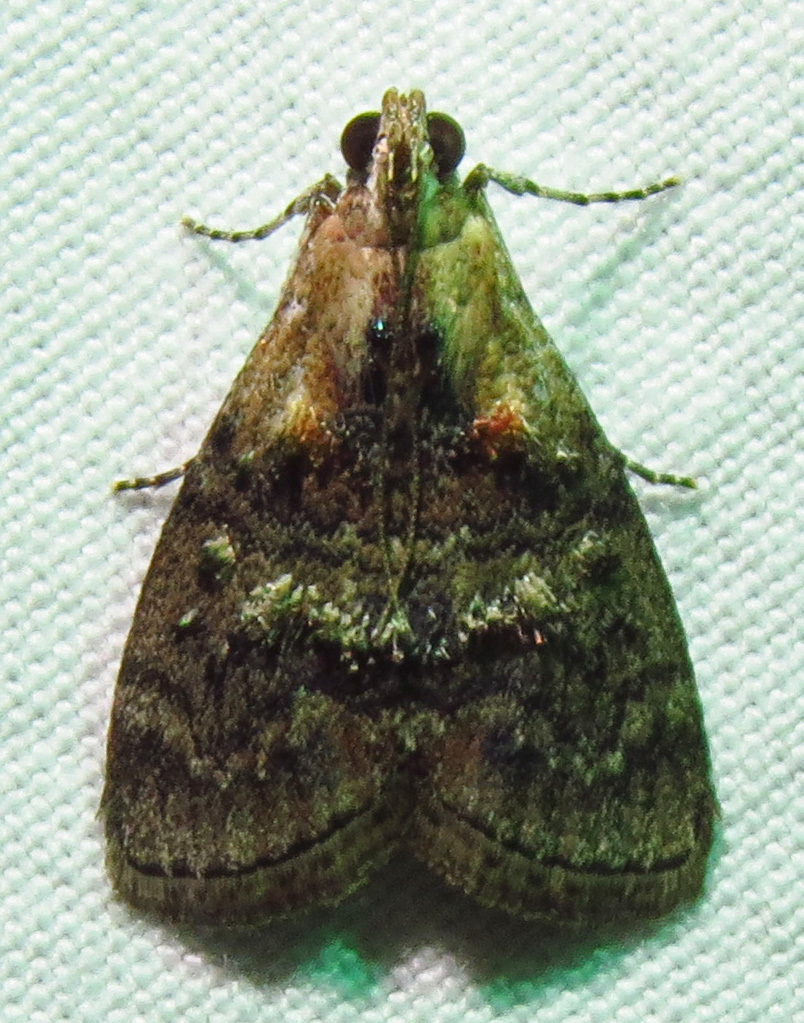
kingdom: Animalia
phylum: Arthropoda
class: Insecta
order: Lepidoptera
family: Pyralidae
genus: Pococera
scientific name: Pococera asperatella
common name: Maple webworm moth
